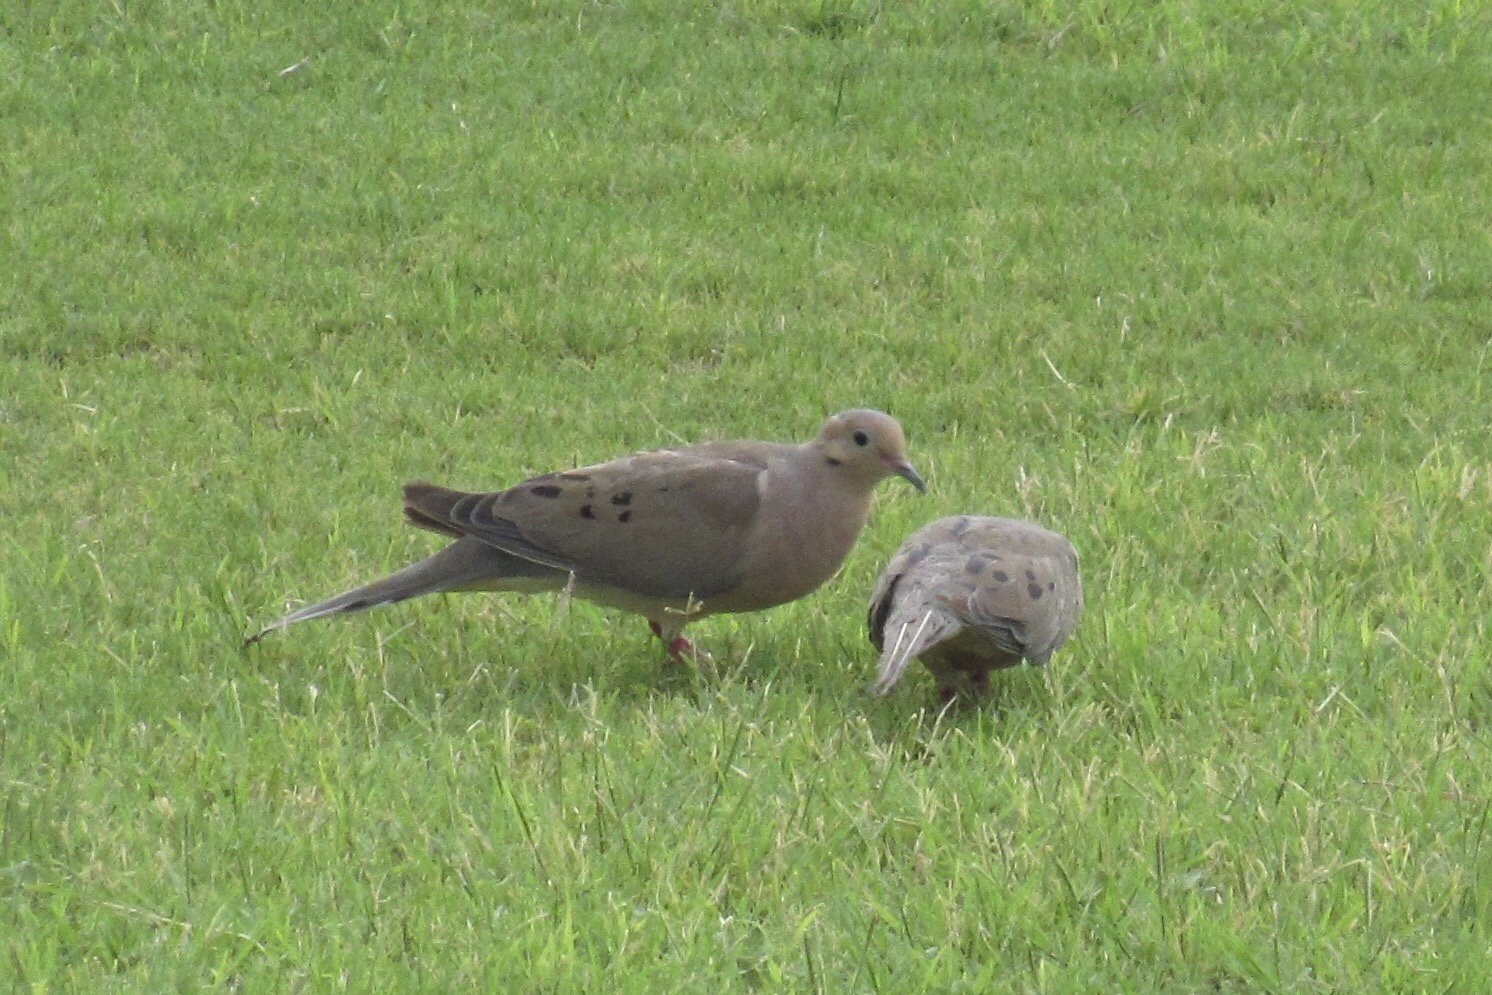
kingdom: Animalia
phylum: Chordata
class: Aves
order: Columbiformes
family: Columbidae
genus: Zenaida
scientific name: Zenaida macroura
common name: Mourning dove
